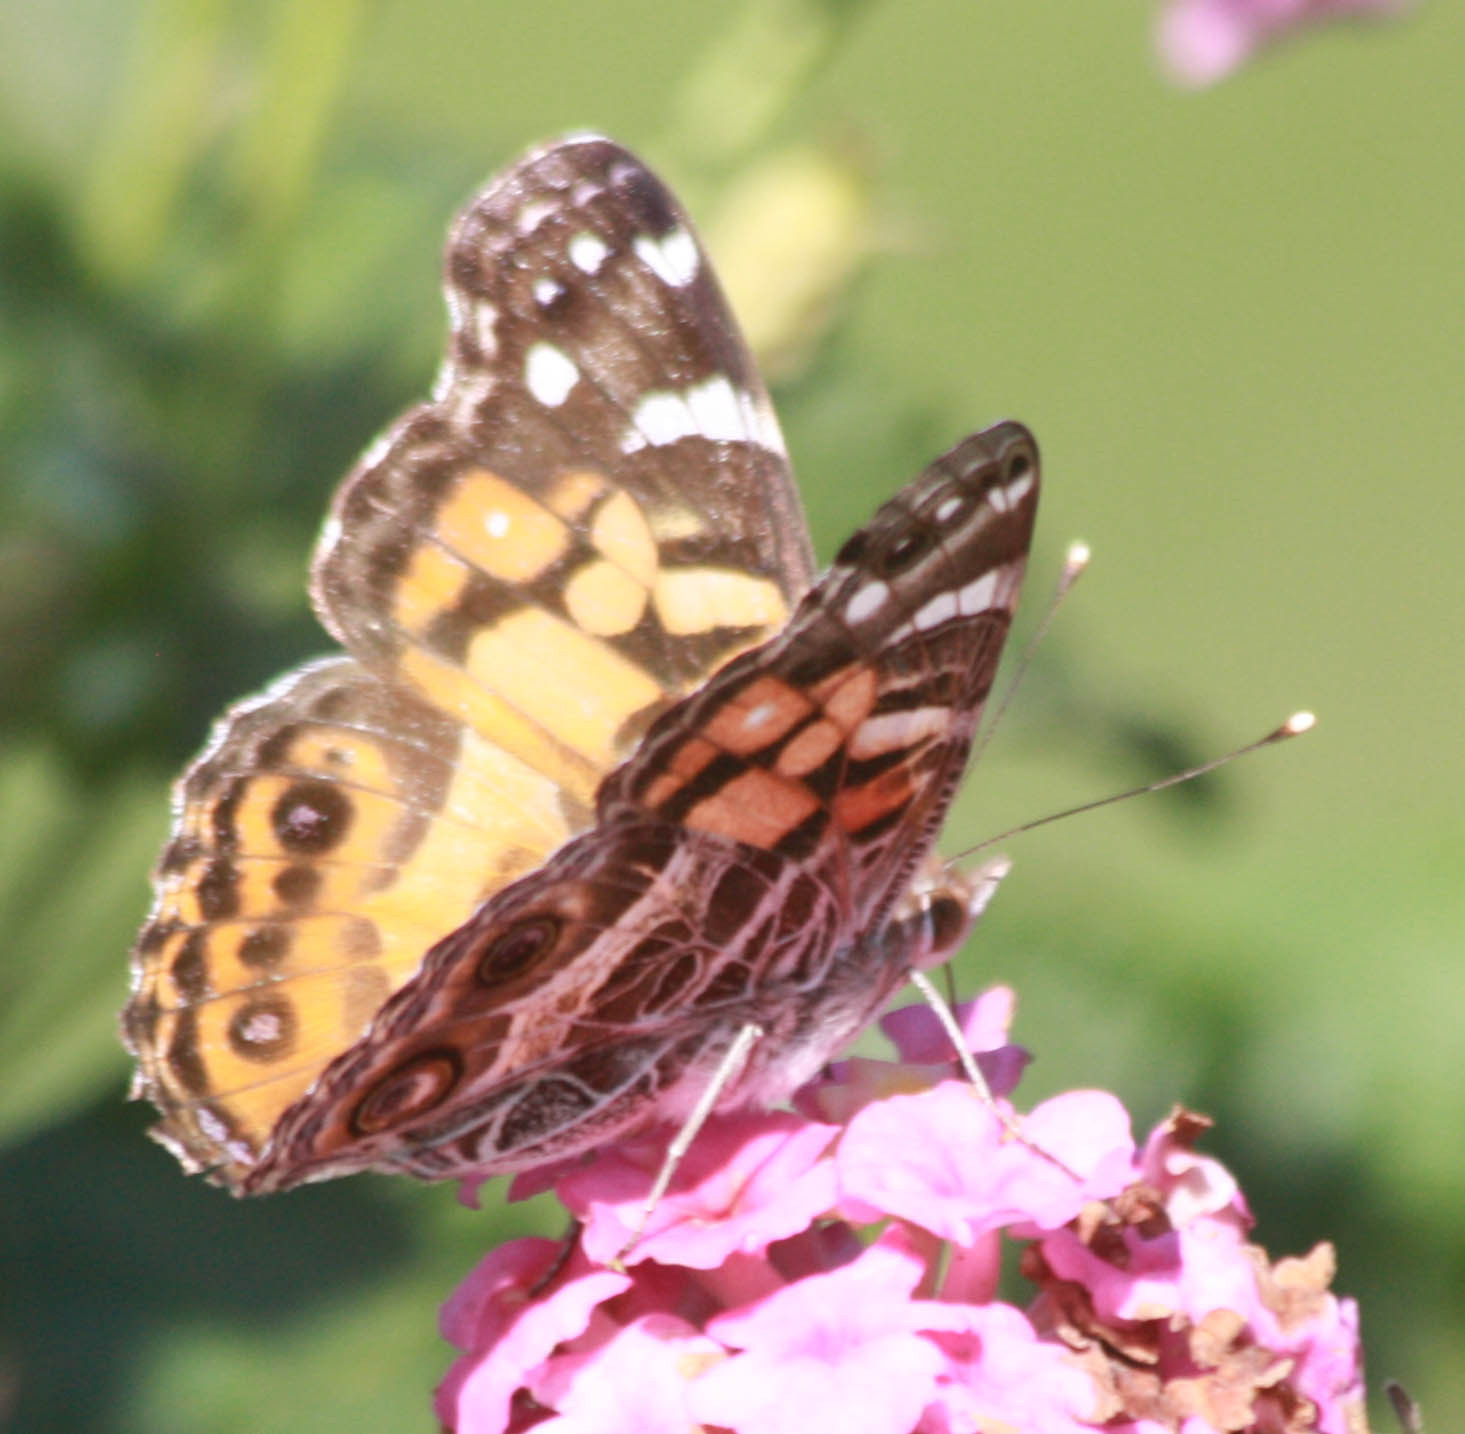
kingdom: Animalia
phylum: Arthropoda
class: Insecta
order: Lepidoptera
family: Nymphalidae
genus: Vanessa
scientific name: Vanessa virginiensis
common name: American lady
